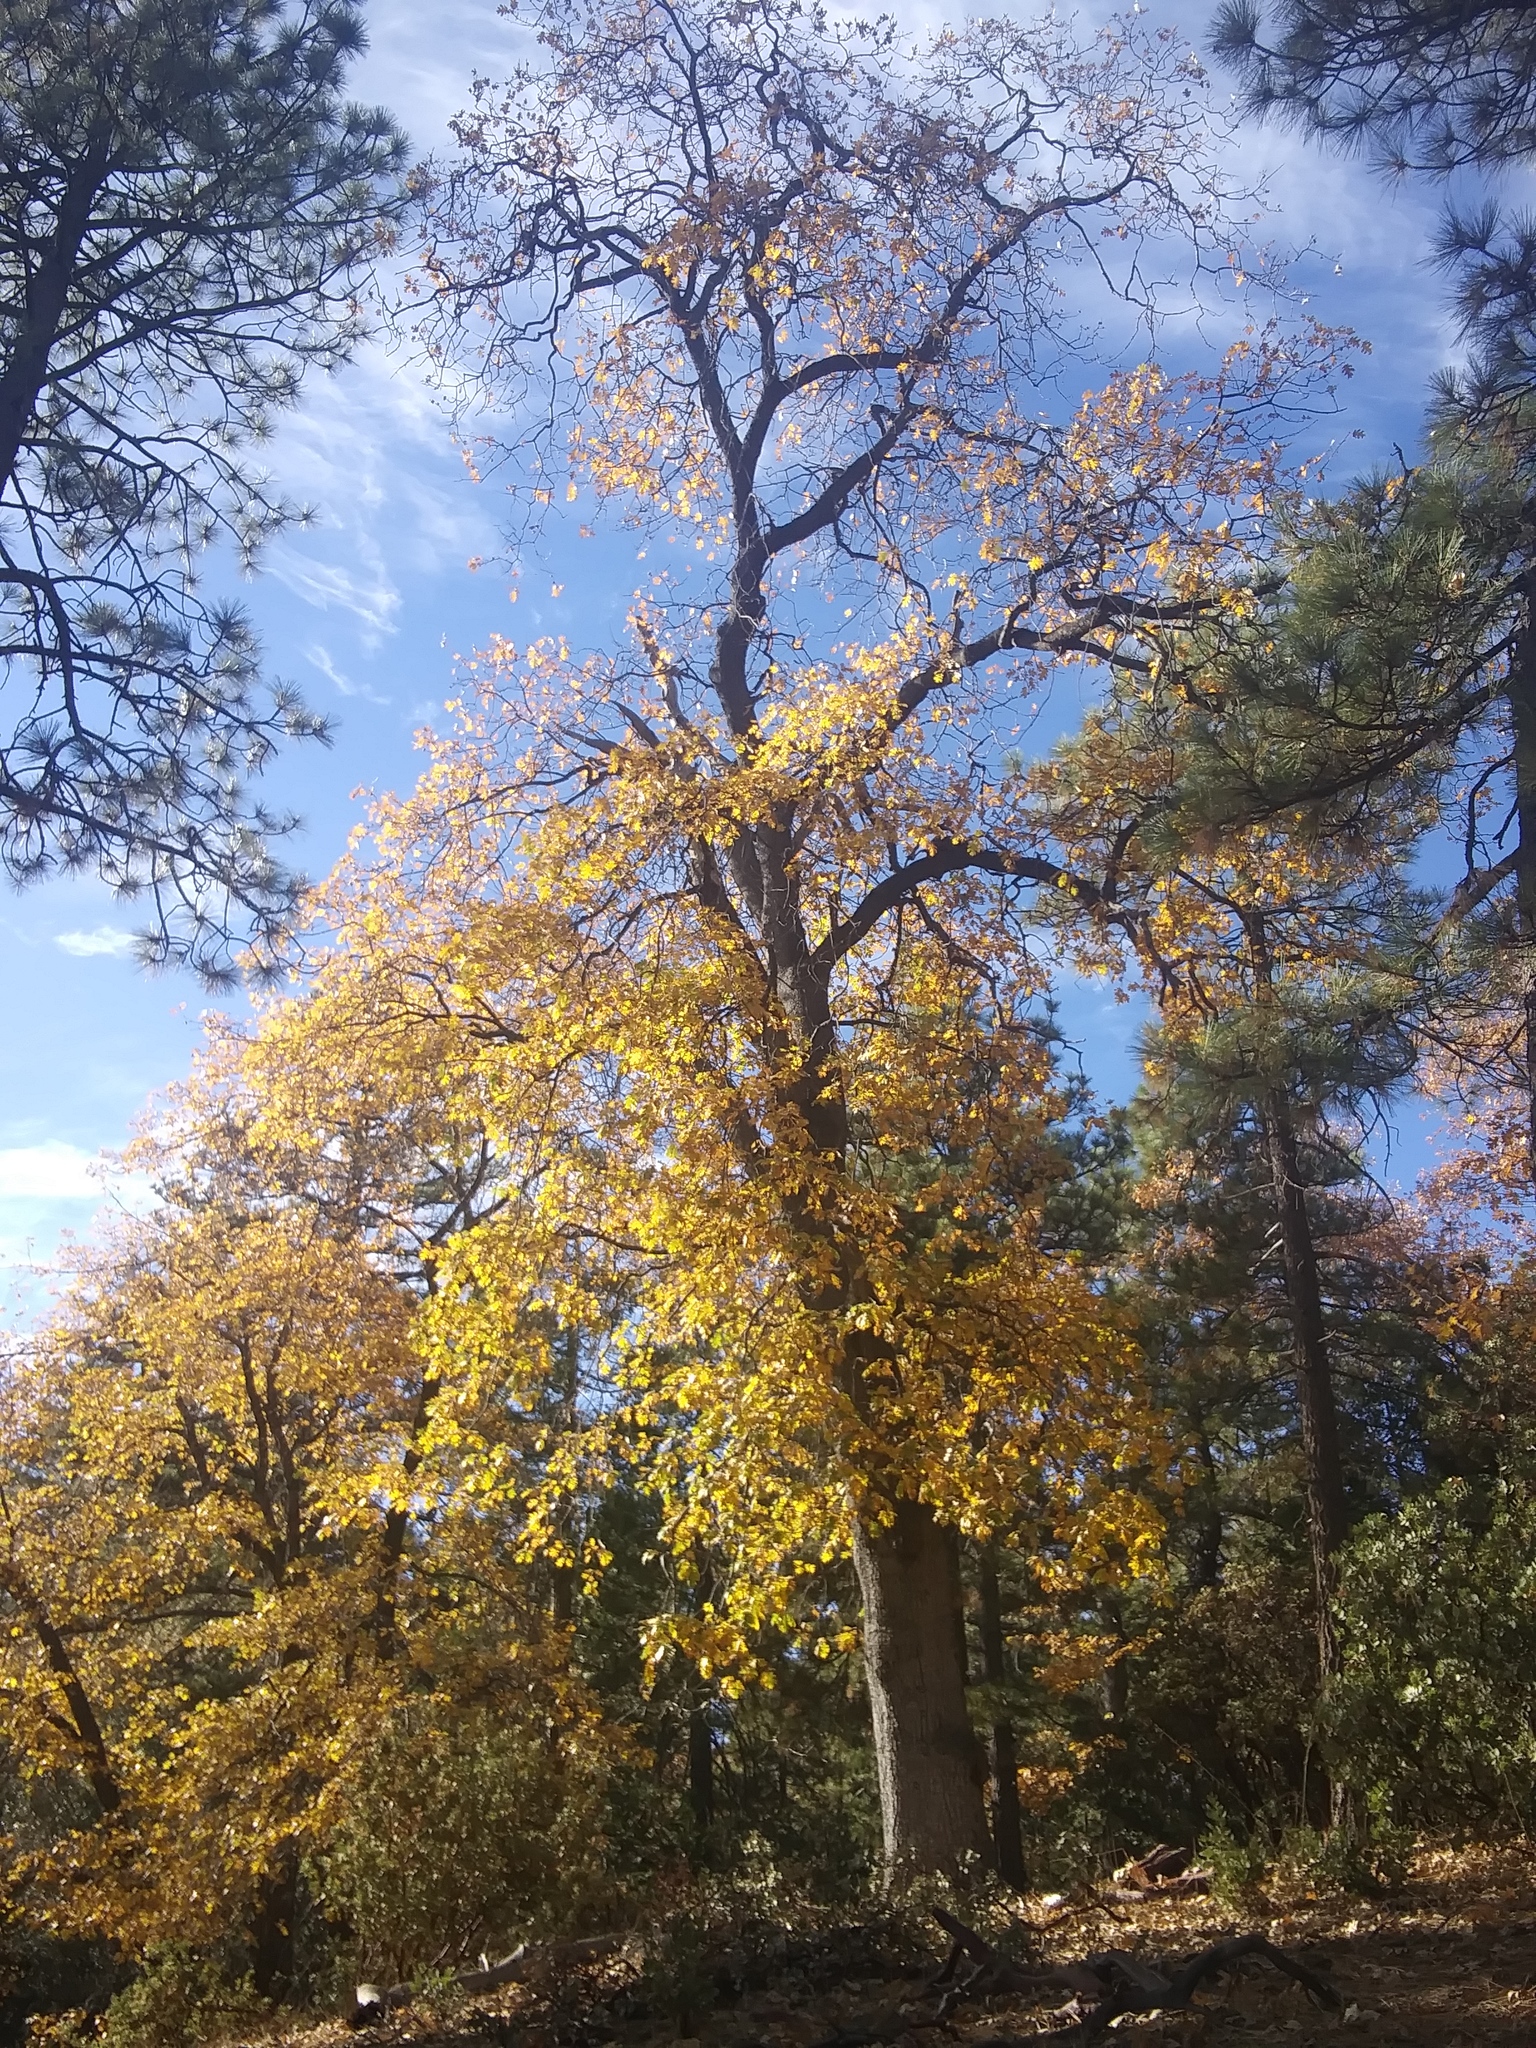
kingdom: Plantae
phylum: Tracheophyta
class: Magnoliopsida
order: Fagales
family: Fagaceae
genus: Quercus
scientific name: Quercus kelloggii
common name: California black oak
